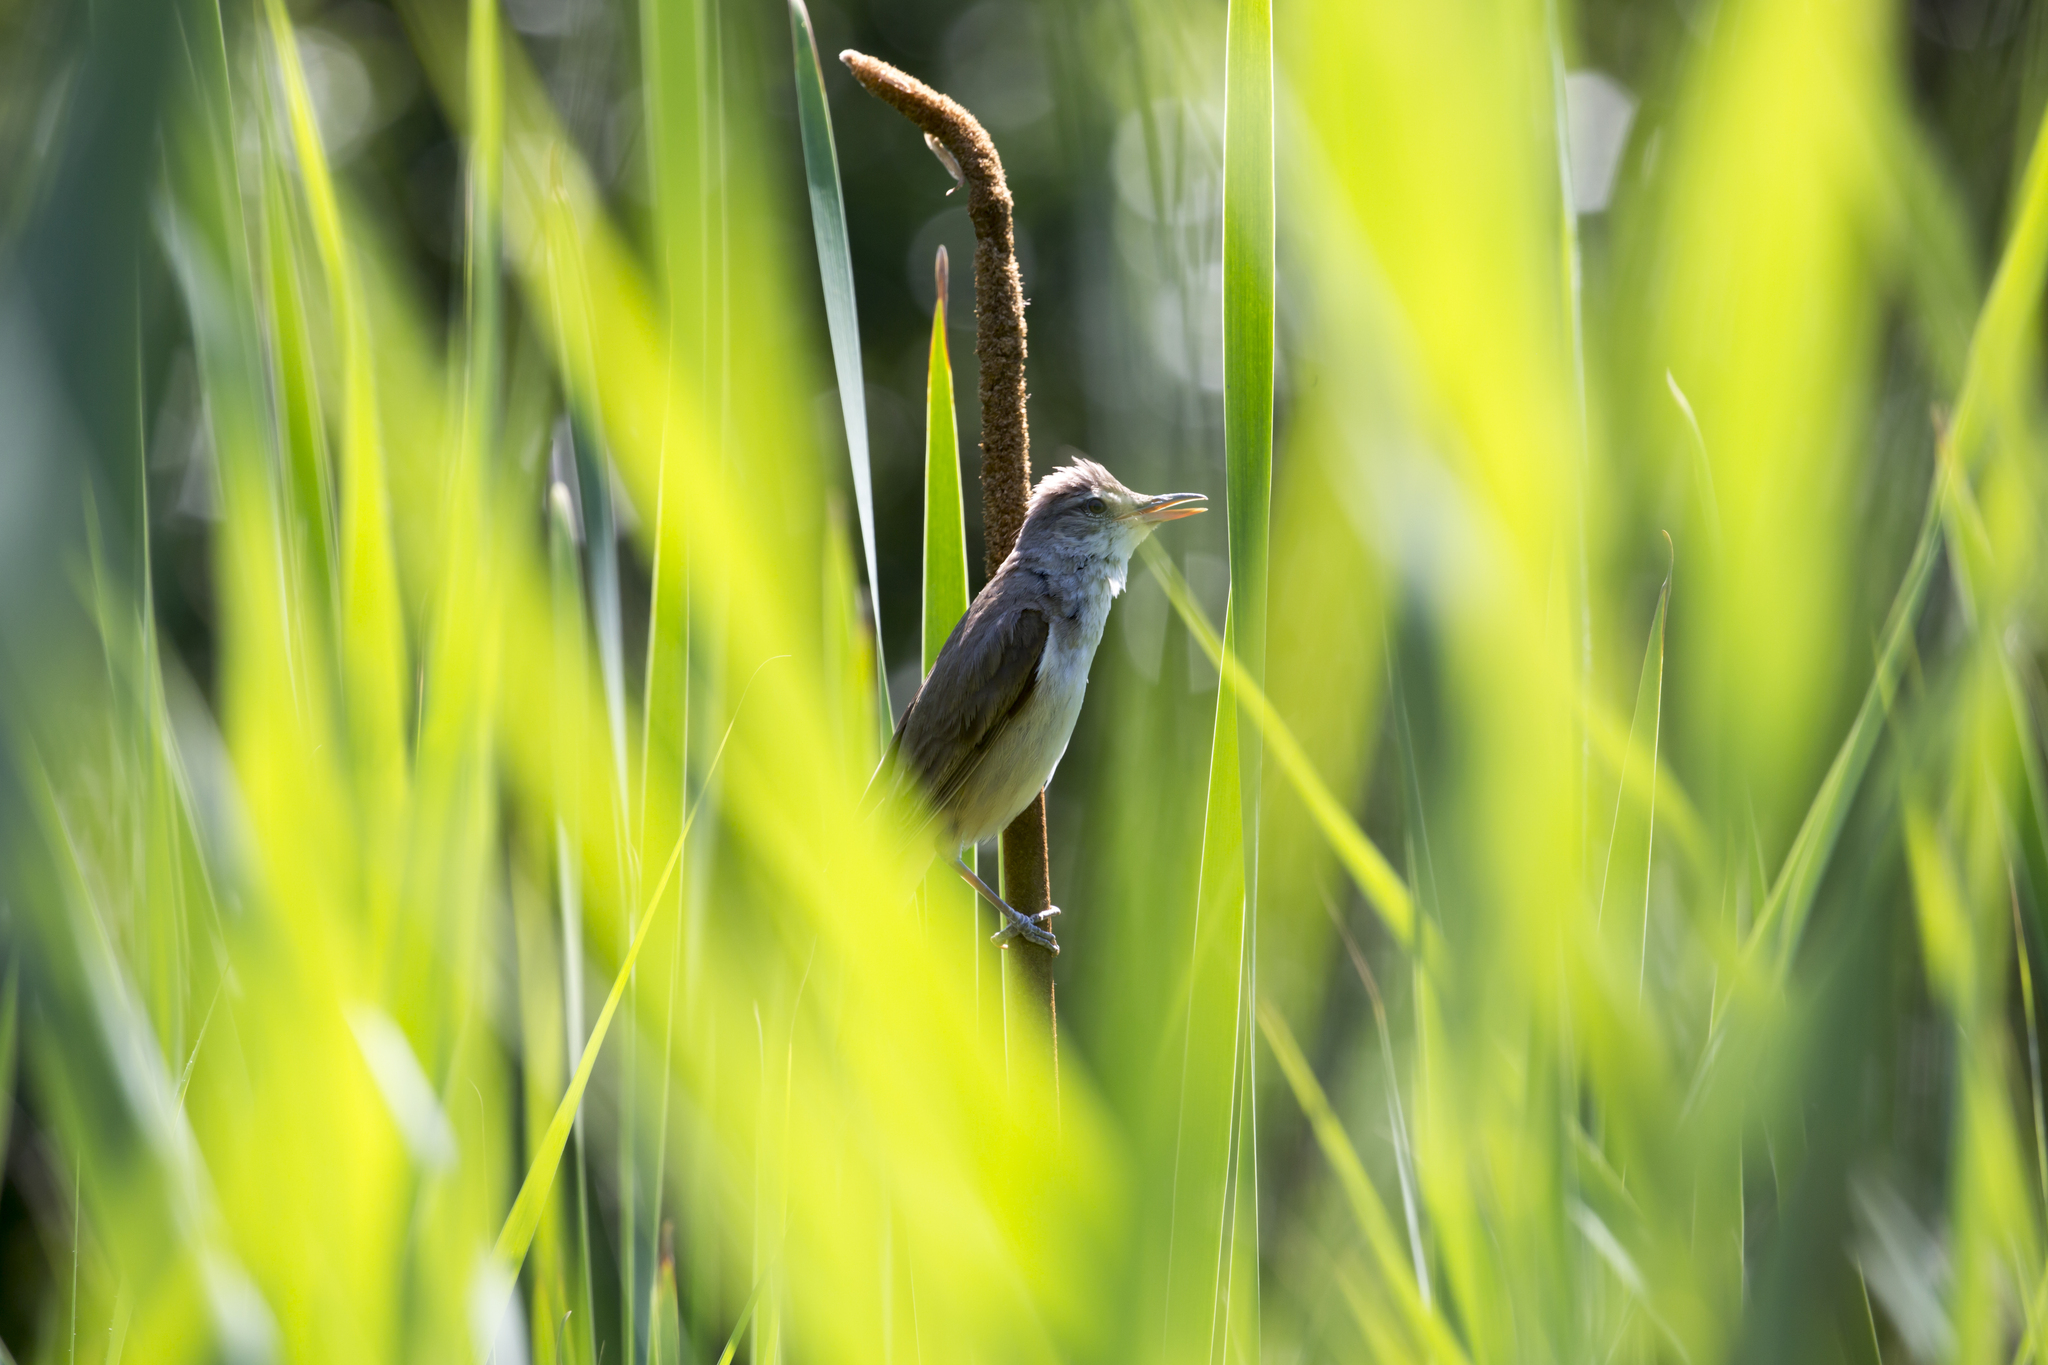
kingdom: Animalia
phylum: Chordata
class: Aves
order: Passeriformes
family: Acrocephalidae
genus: Acrocephalus
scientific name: Acrocephalus arundinaceus
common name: Great reed warbler
